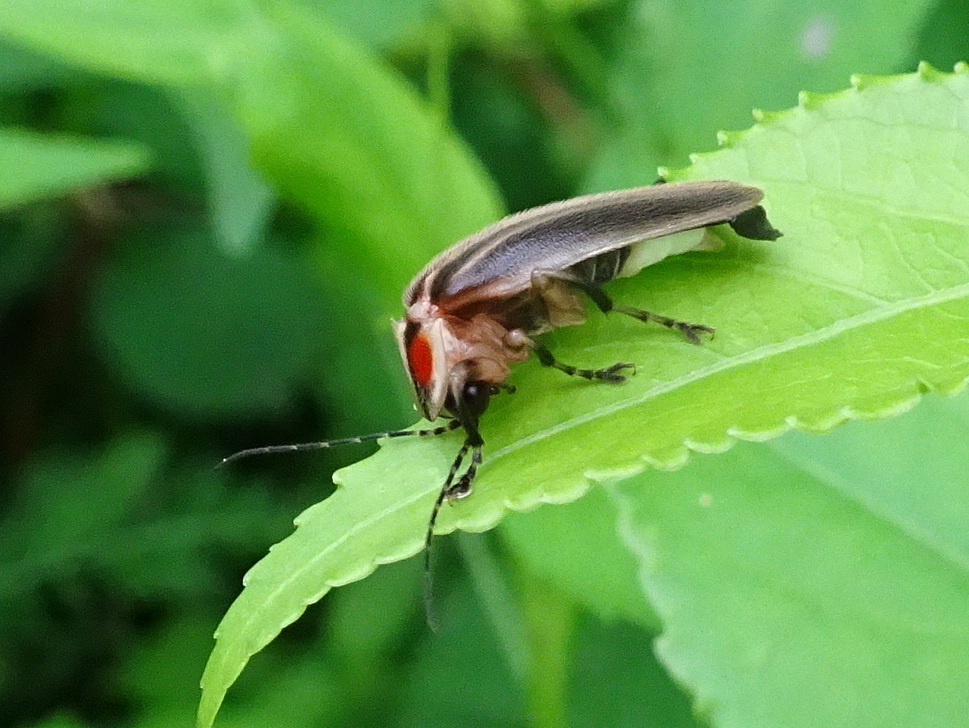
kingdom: Animalia
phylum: Arthropoda
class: Insecta
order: Coleoptera
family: Lampyridae
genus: Photuris
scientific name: Photuris
